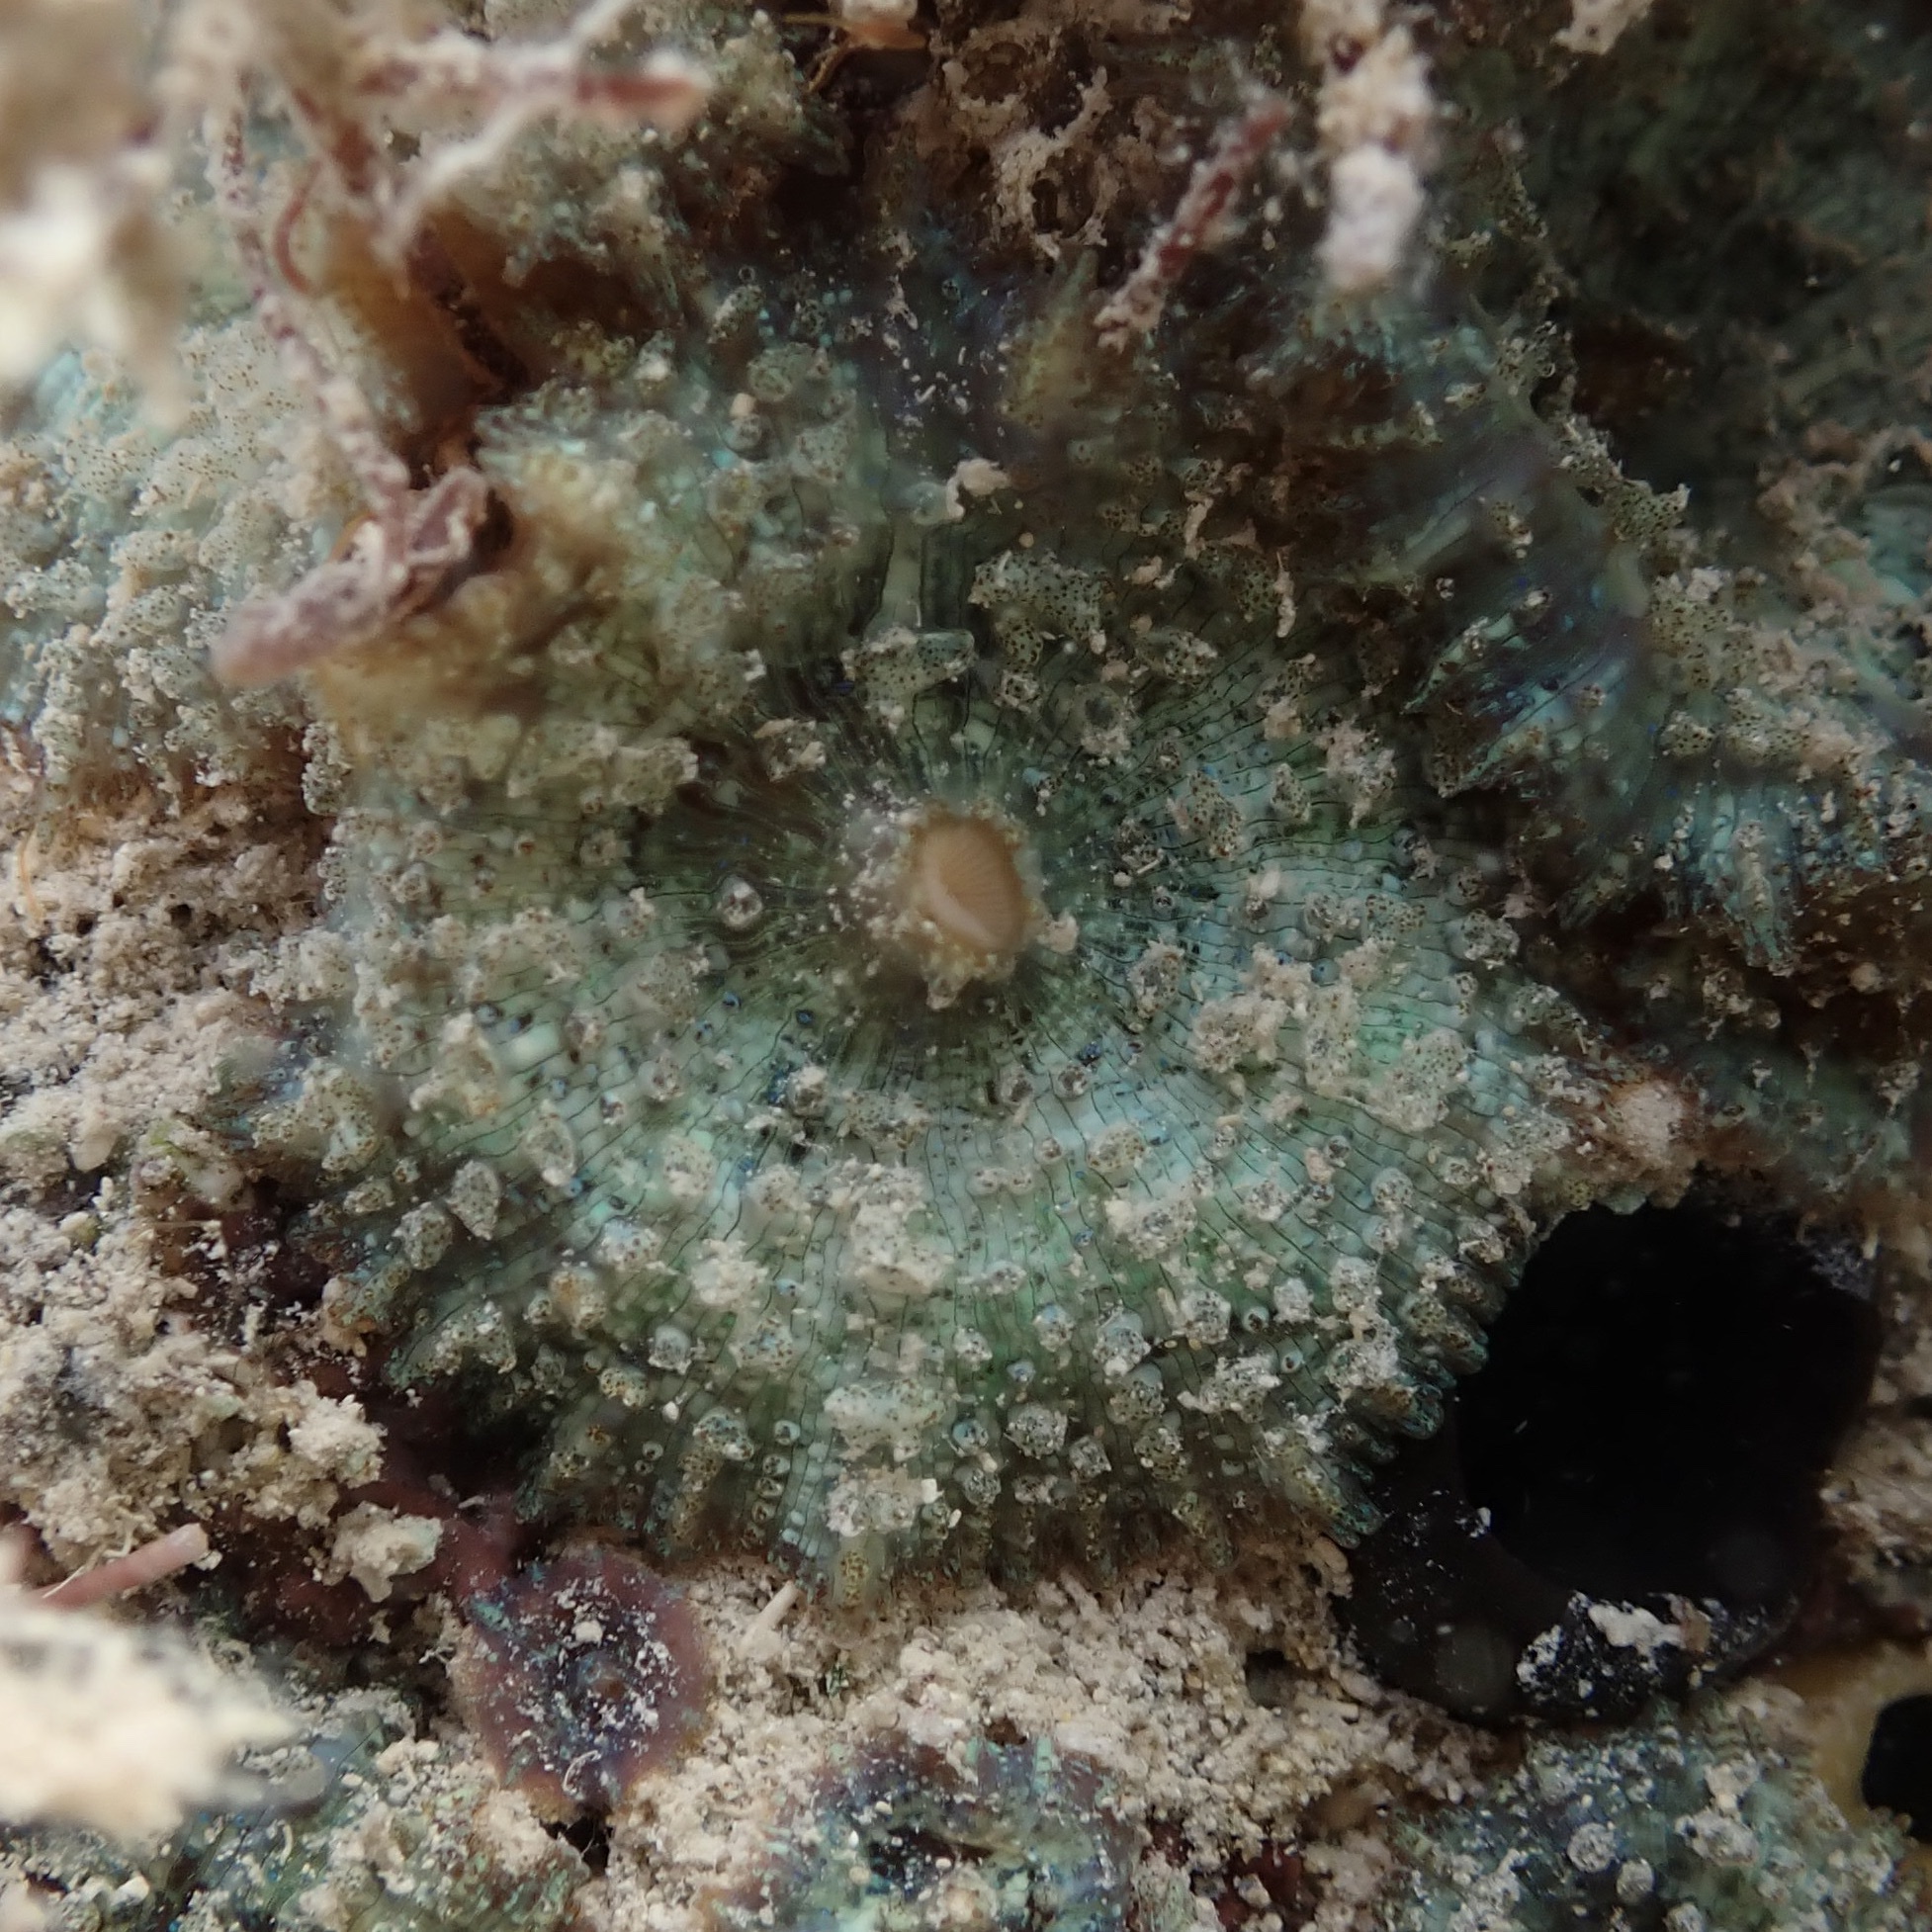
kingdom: Animalia
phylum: Cnidaria
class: Anthozoa
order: Corallimorpharia
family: Discosomidae
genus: Discosoma
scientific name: Discosoma carlgreni
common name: Forked-tentacle corallimorpharian
